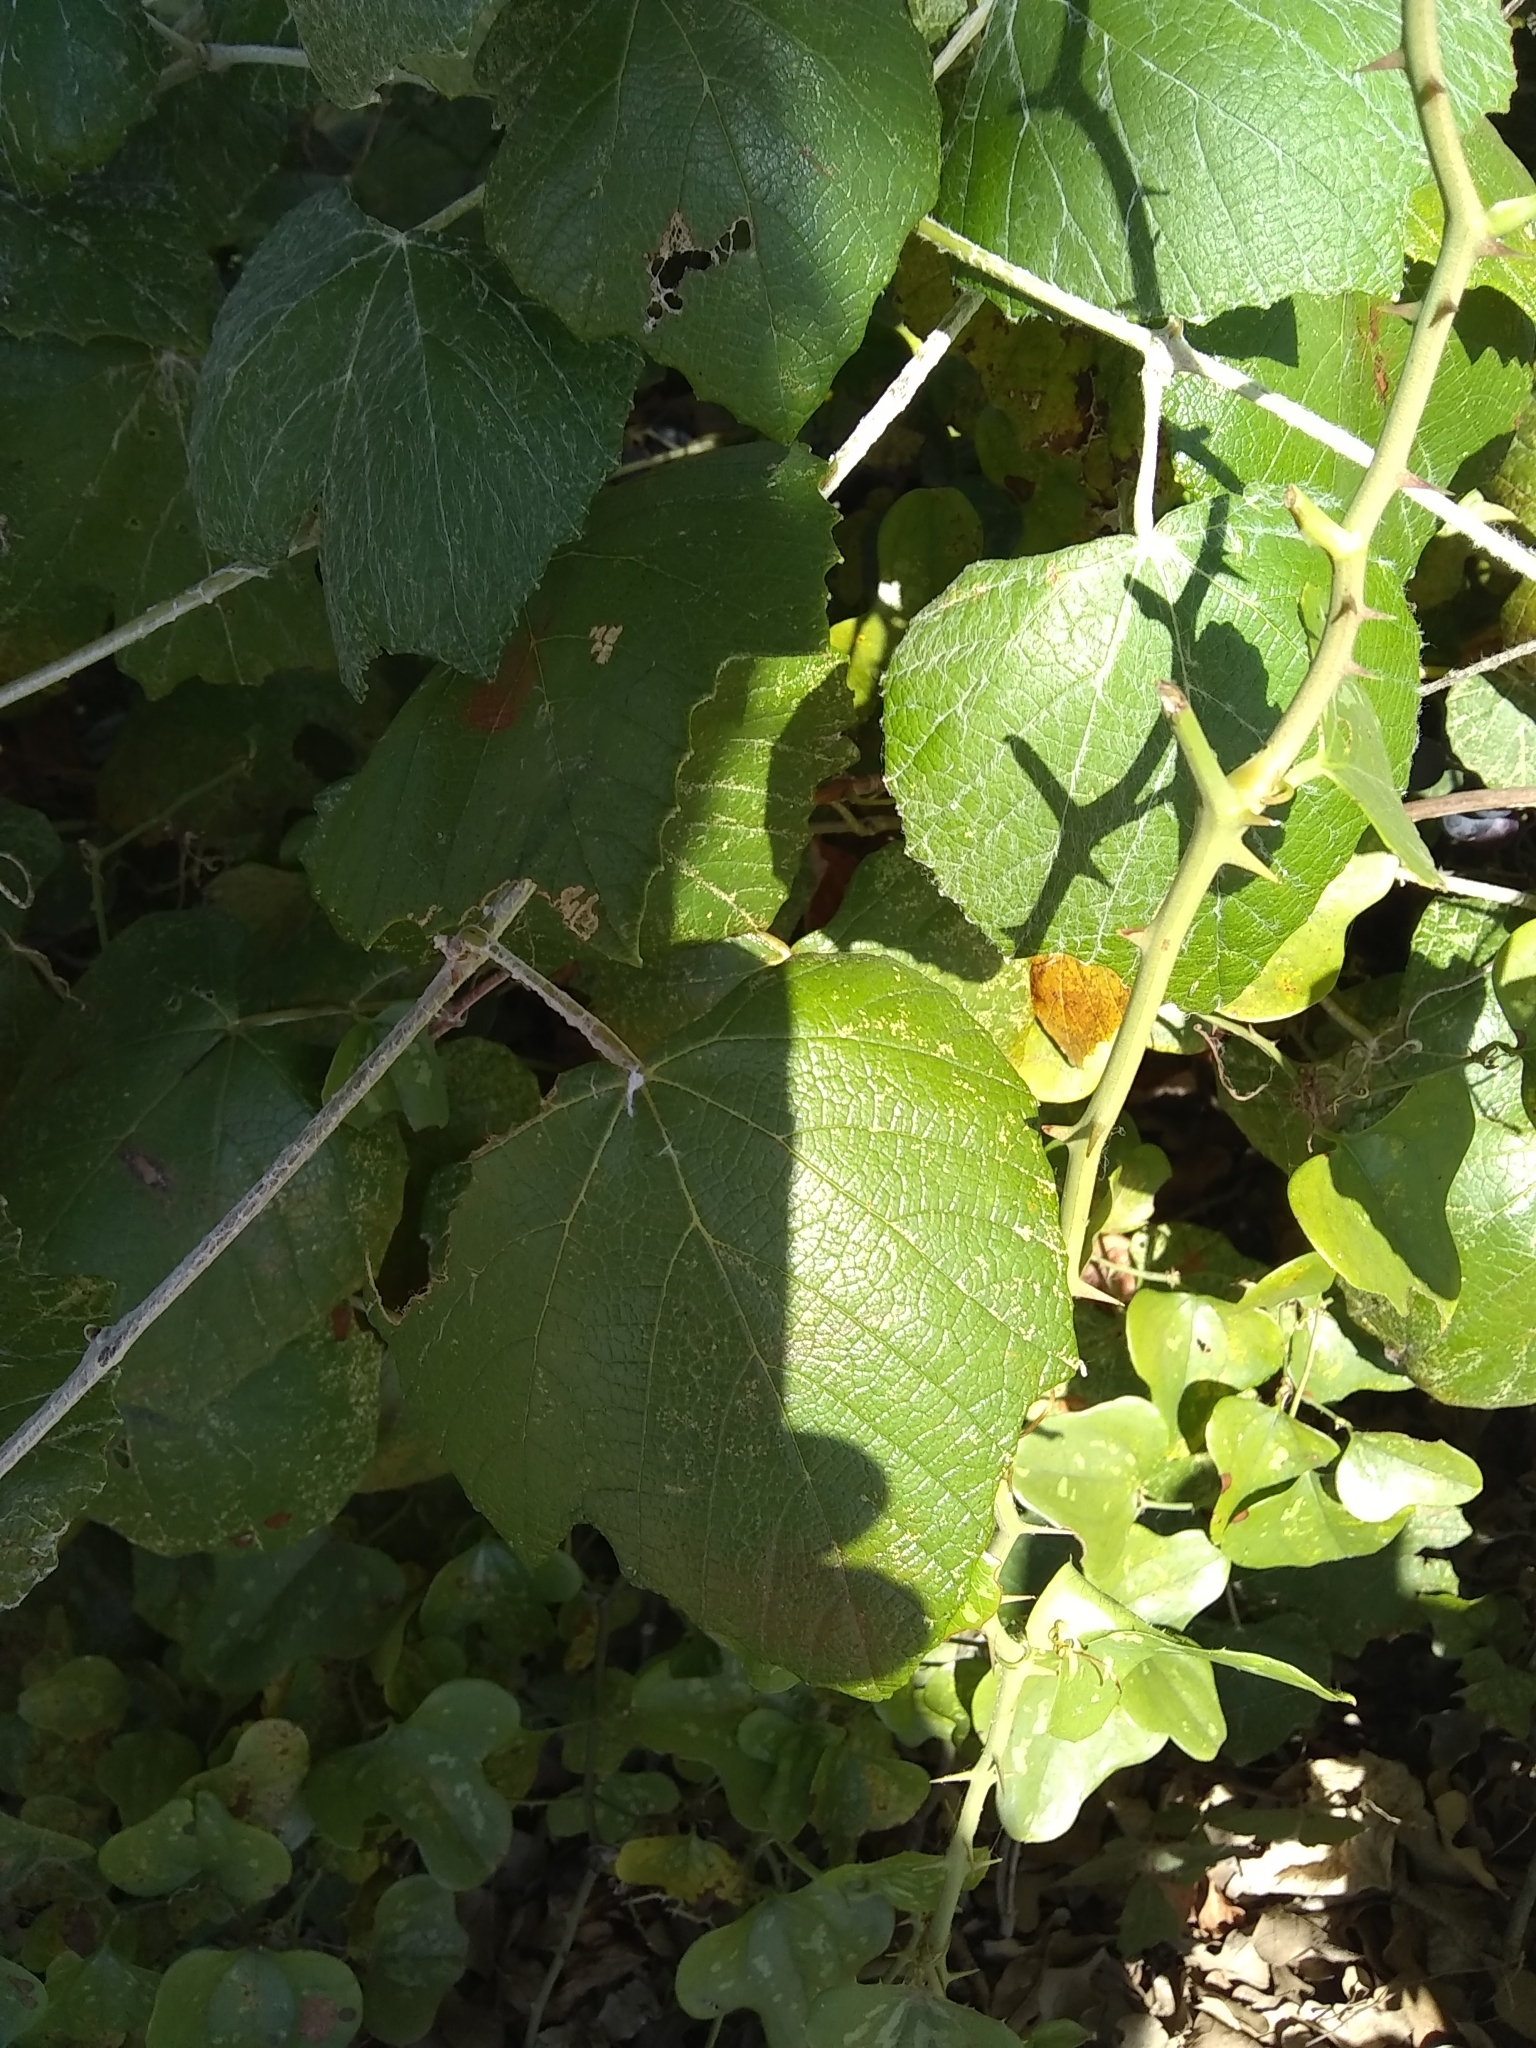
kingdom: Plantae
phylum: Tracheophyta
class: Magnoliopsida
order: Vitales
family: Vitaceae
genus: Vitis
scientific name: Vitis mustangensis
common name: Mustang grape
